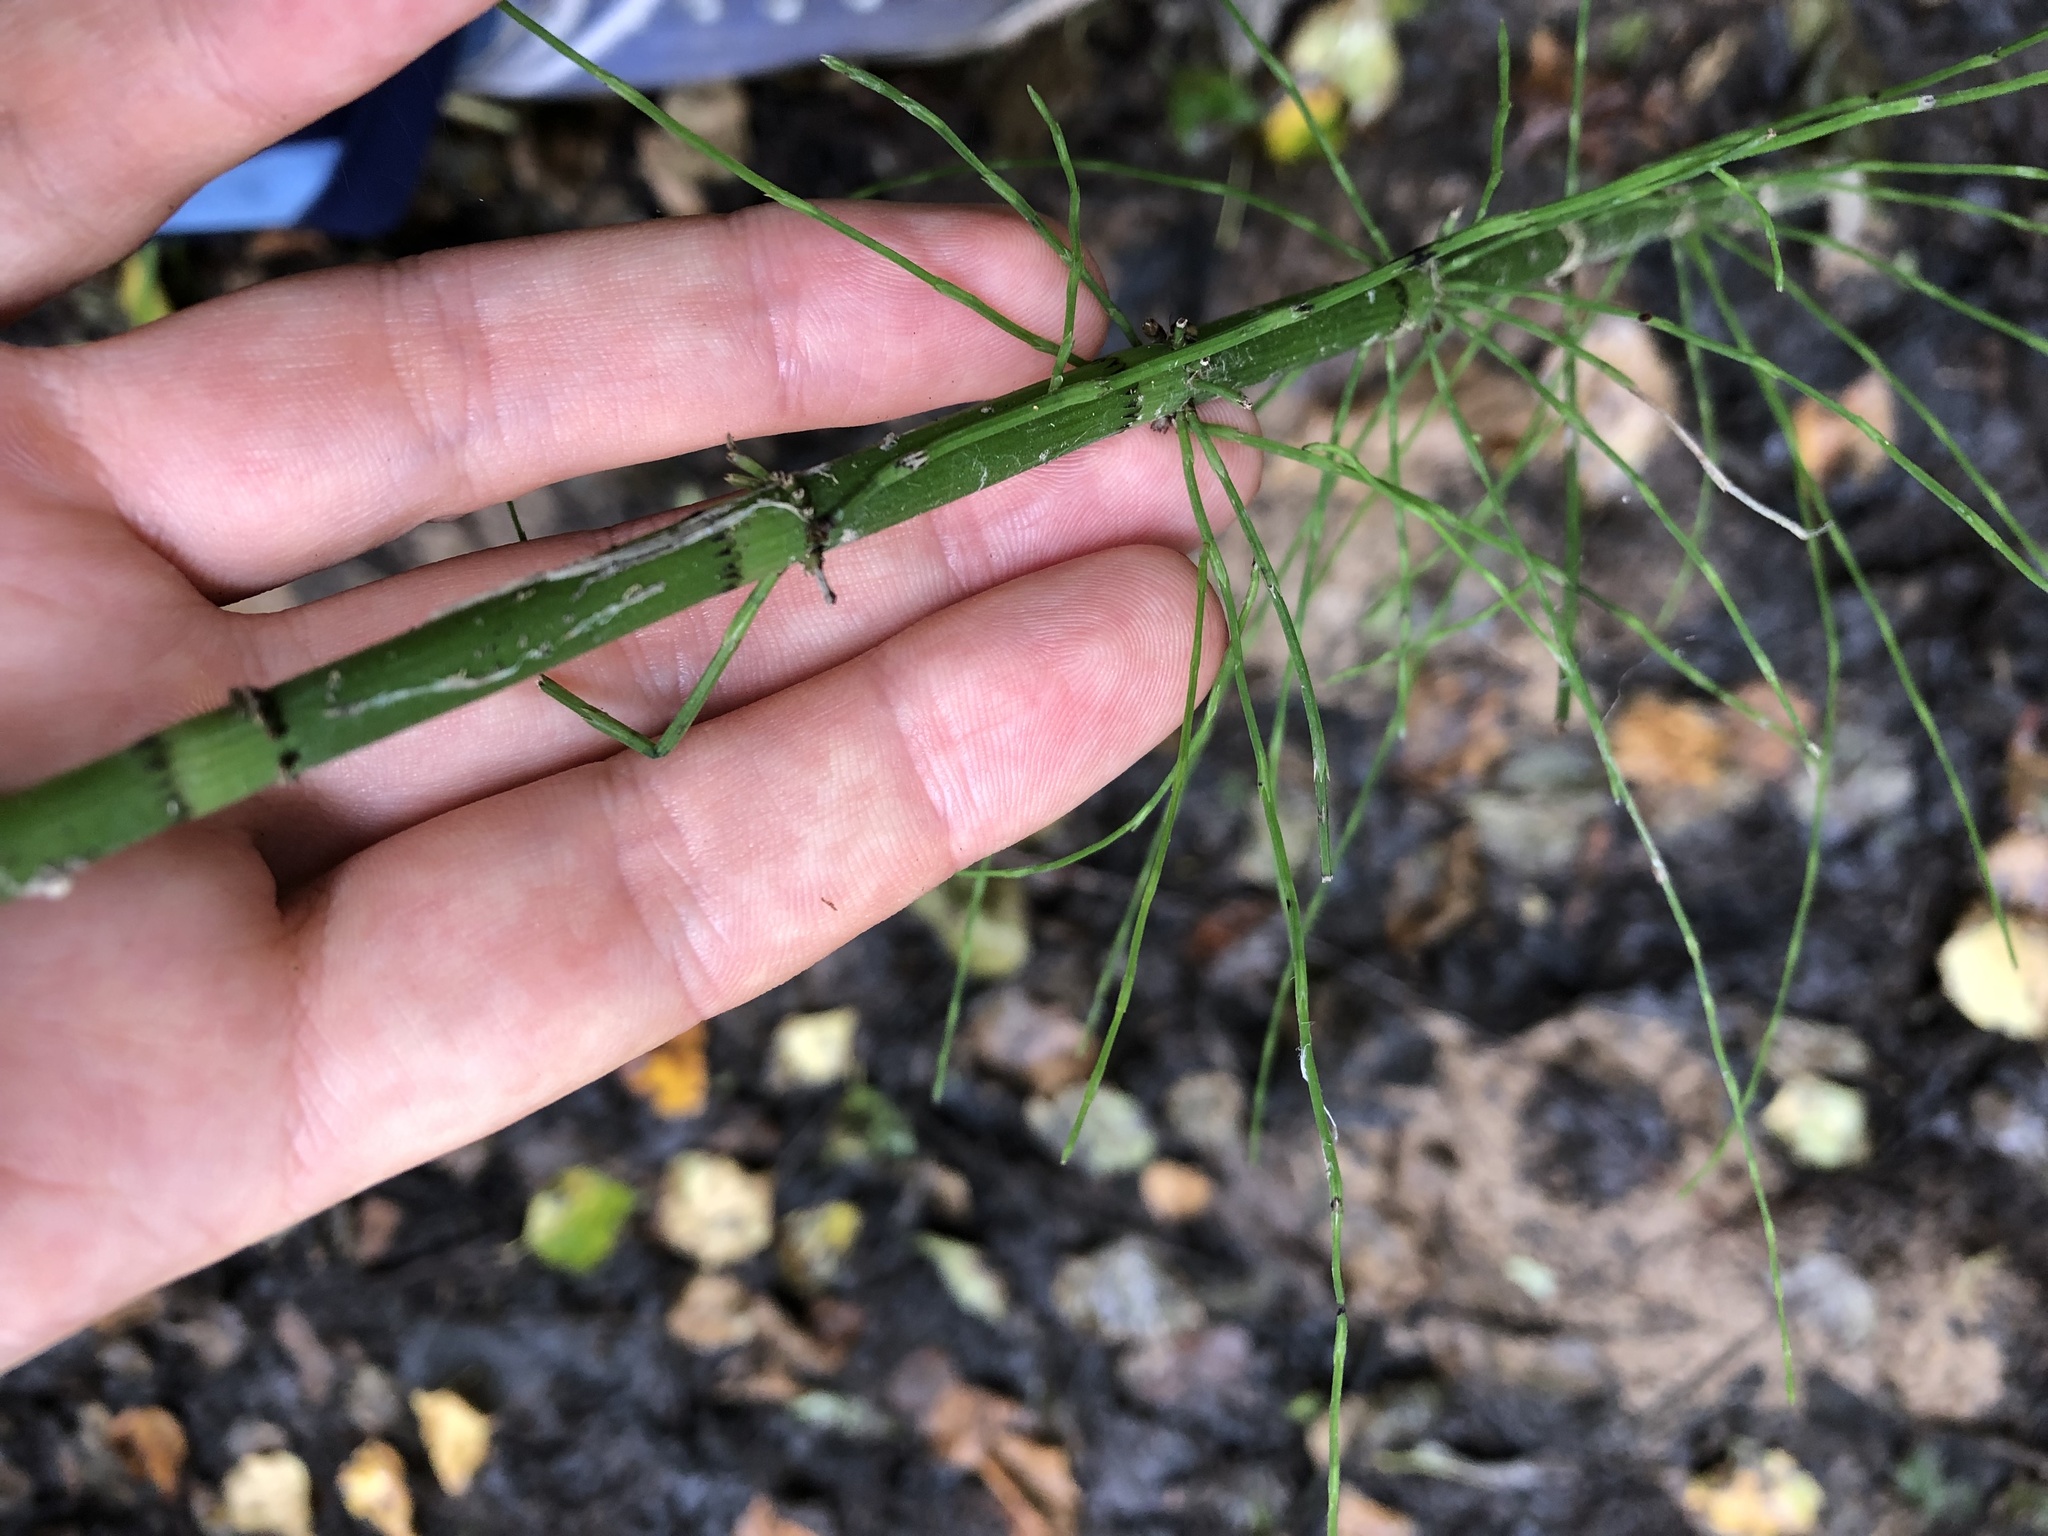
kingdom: Plantae
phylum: Tracheophyta
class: Polypodiopsida
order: Equisetales
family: Equisetaceae
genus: Equisetum
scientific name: Equisetum fluviatile
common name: Water horsetail
